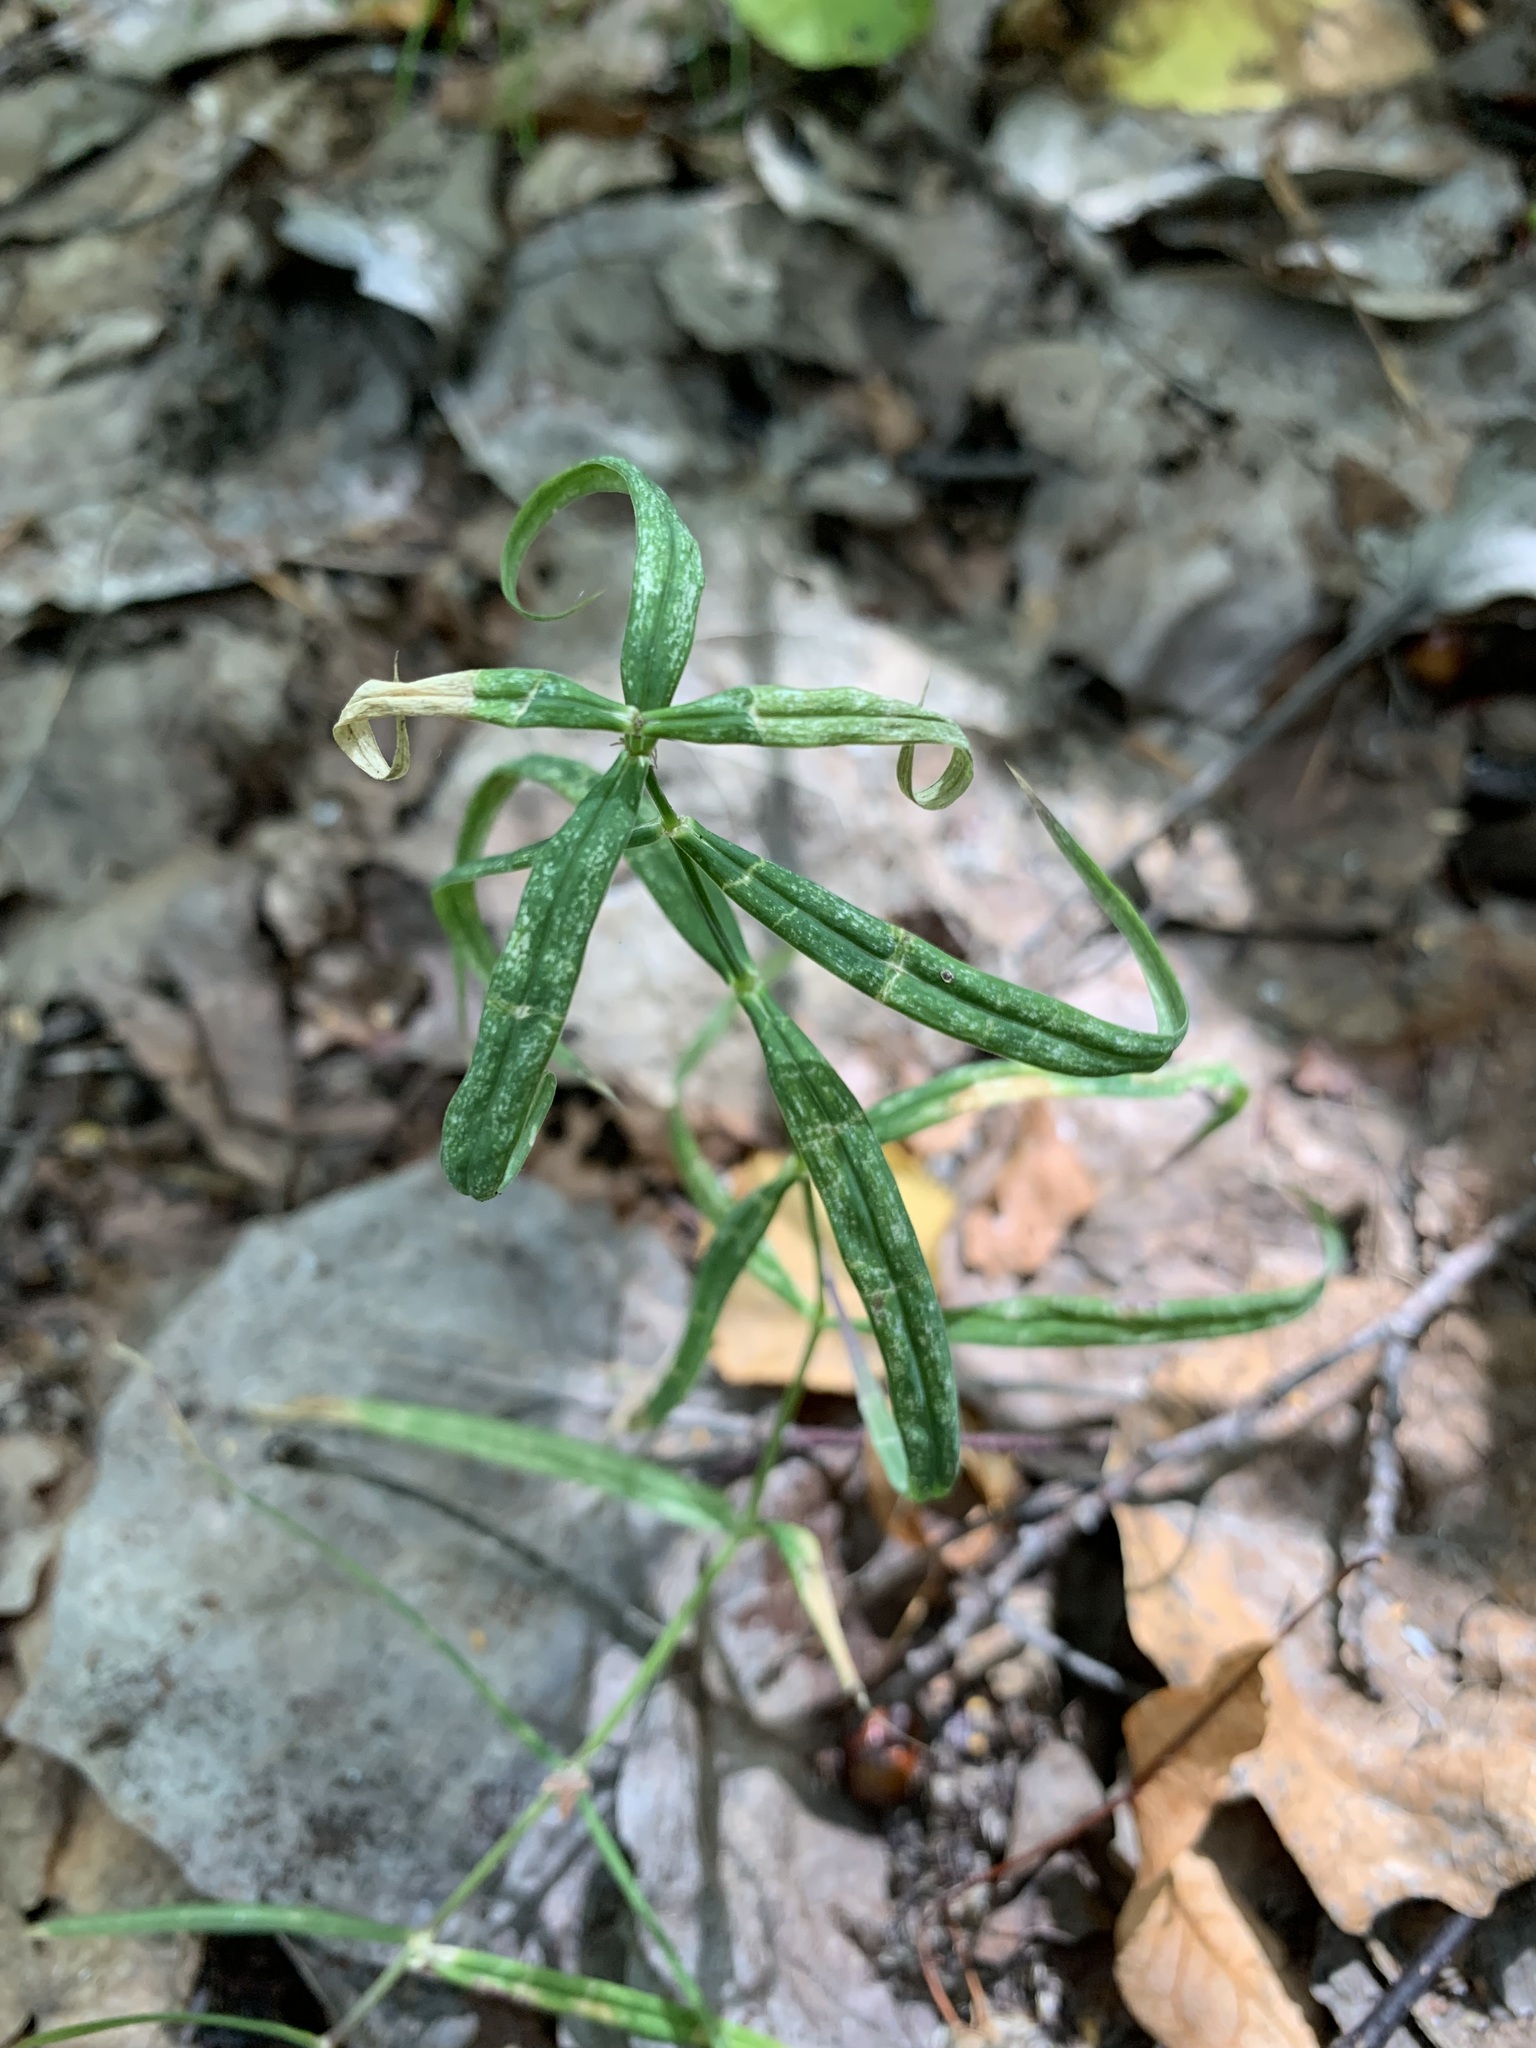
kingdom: Plantae
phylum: Tracheophyta
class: Magnoliopsida
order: Caryophyllales
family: Caryophyllaceae
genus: Rabelera
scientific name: Rabelera holostea
